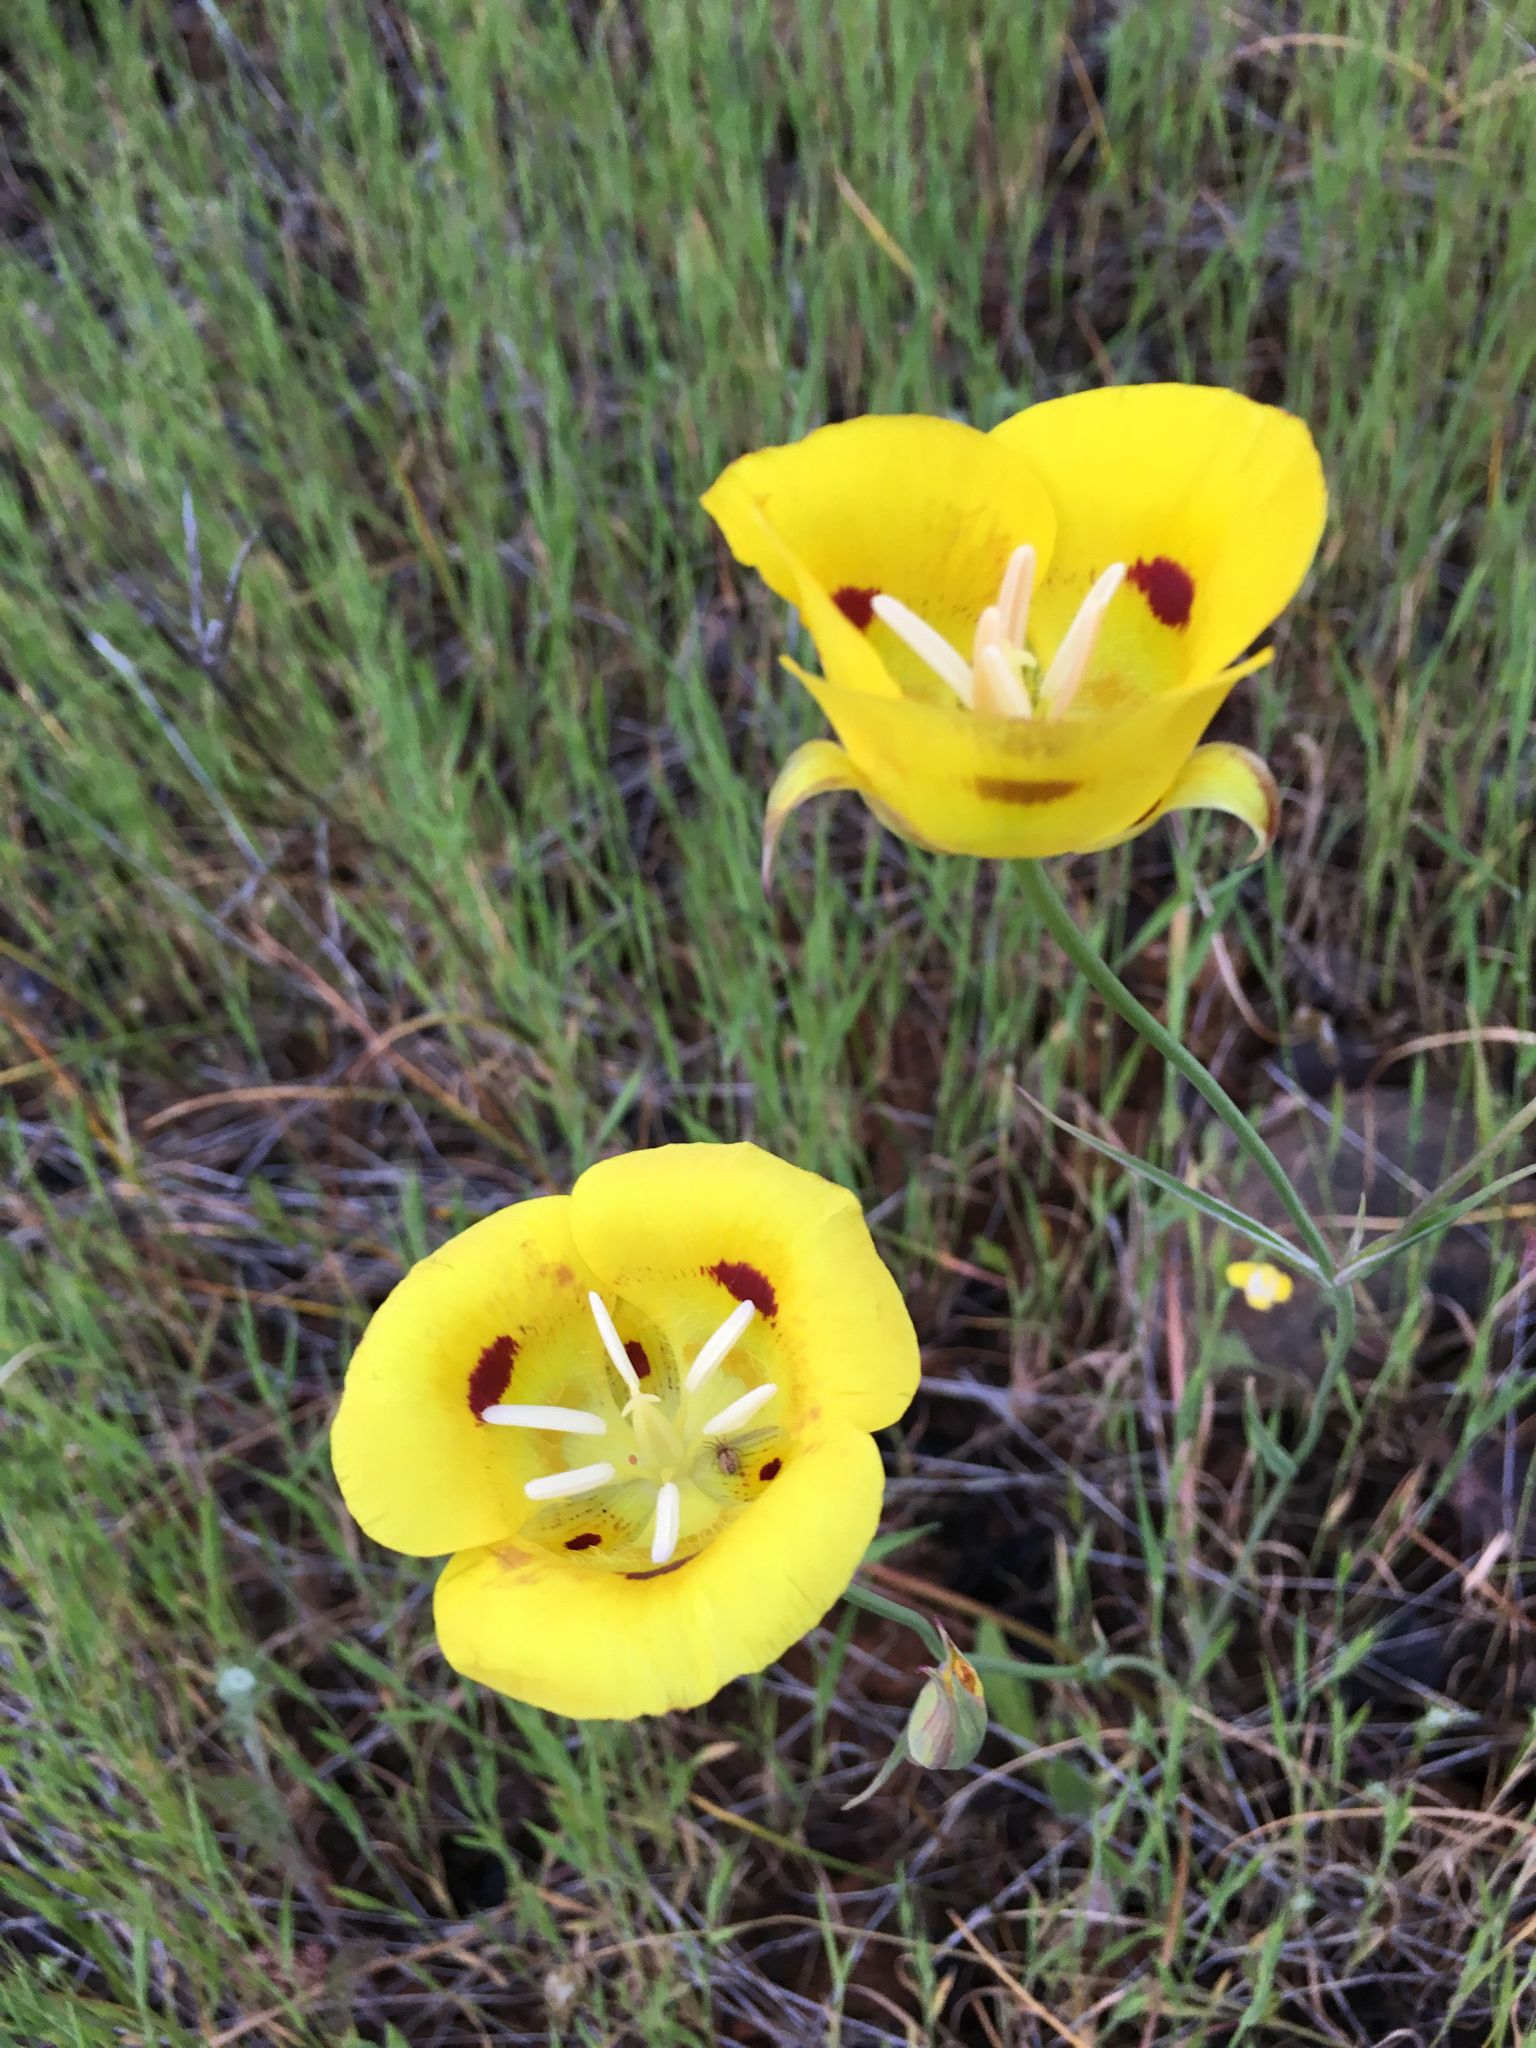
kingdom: Plantae
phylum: Tracheophyta
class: Liliopsida
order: Liliales
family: Liliaceae
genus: Calochortus
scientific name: Calochortus luteus
